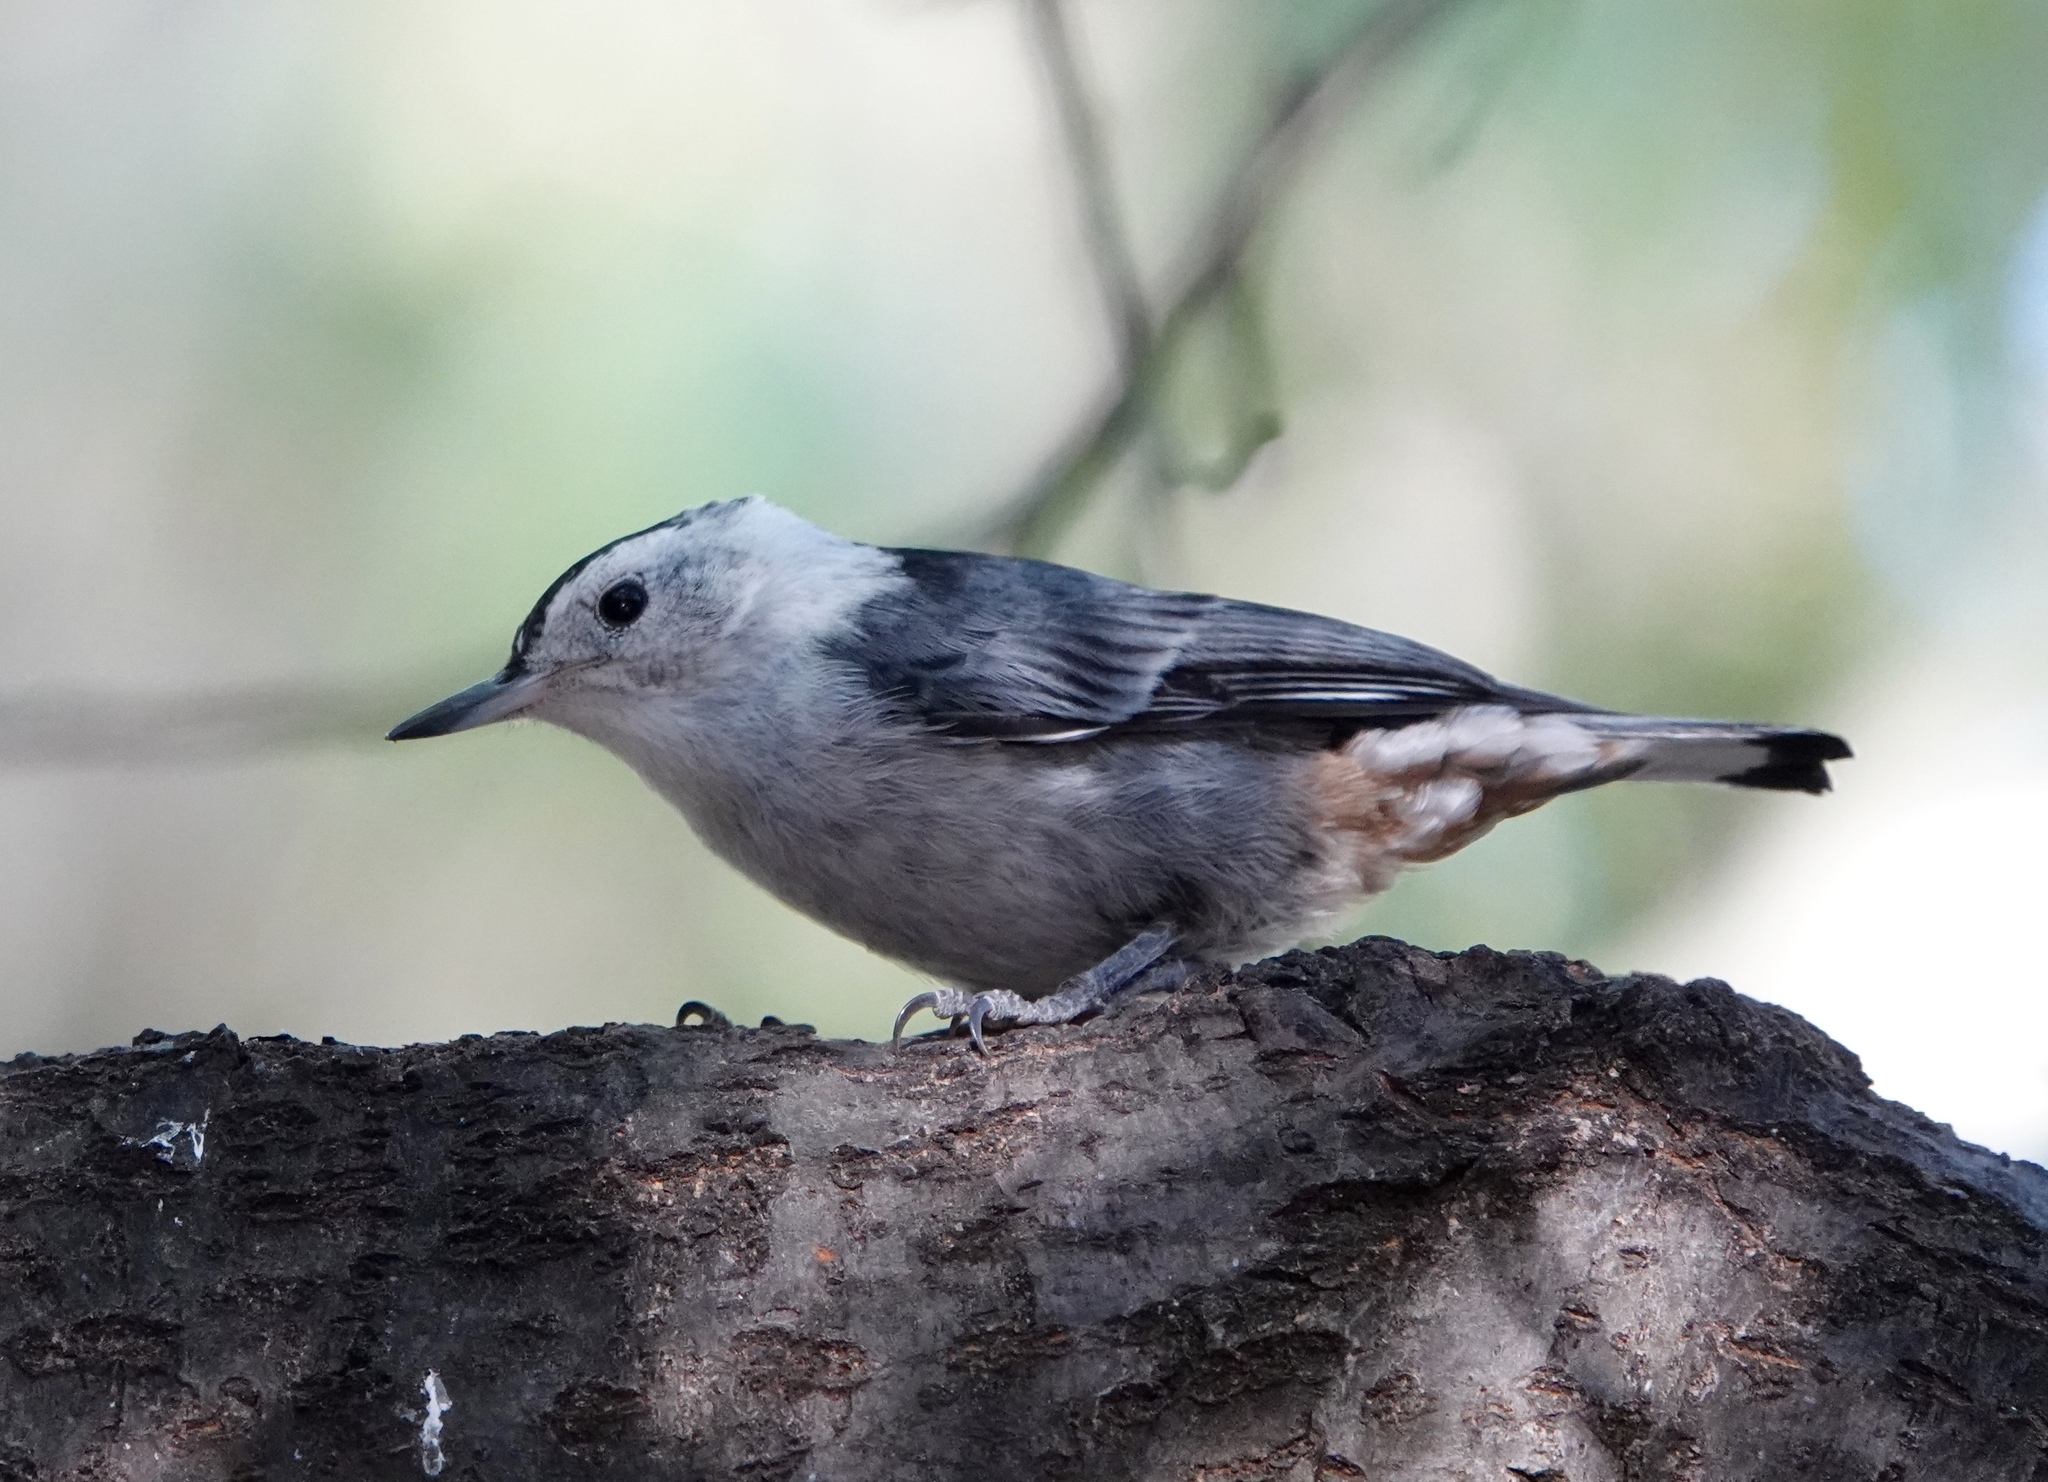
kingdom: Animalia
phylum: Chordata
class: Aves
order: Passeriformes
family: Sittidae
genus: Sitta
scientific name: Sitta carolinensis
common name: White-breasted nuthatch
